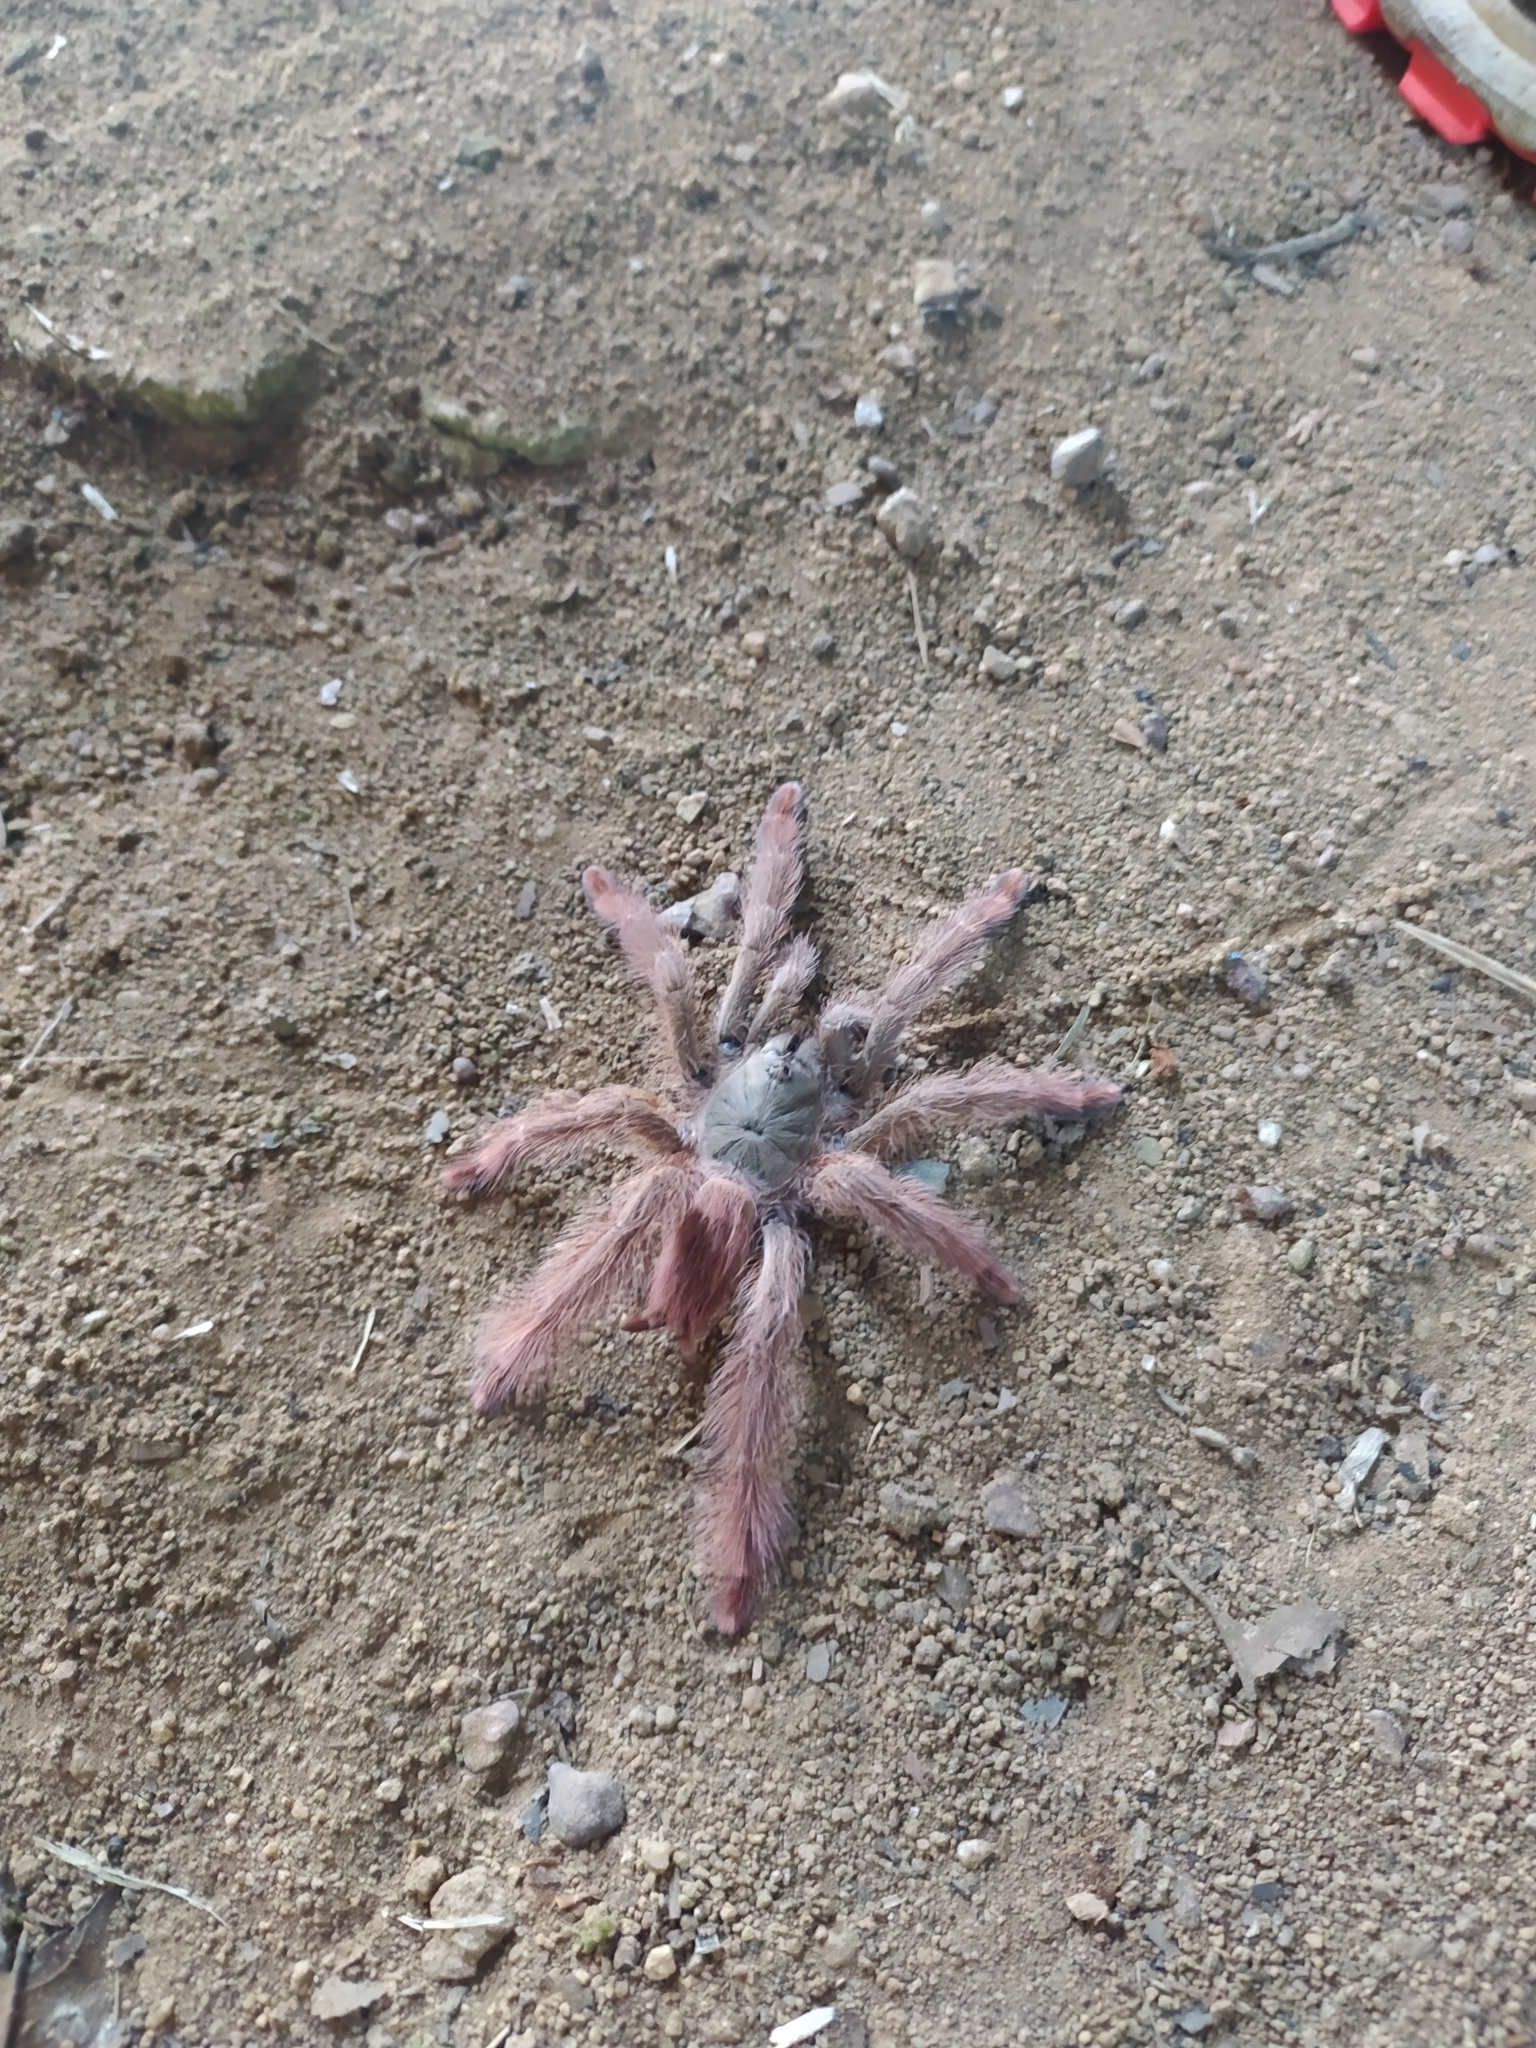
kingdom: Animalia
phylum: Arthropoda
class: Arachnida
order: Araneae
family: Theraphosidae
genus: Amazonius
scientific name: Amazonius germani
